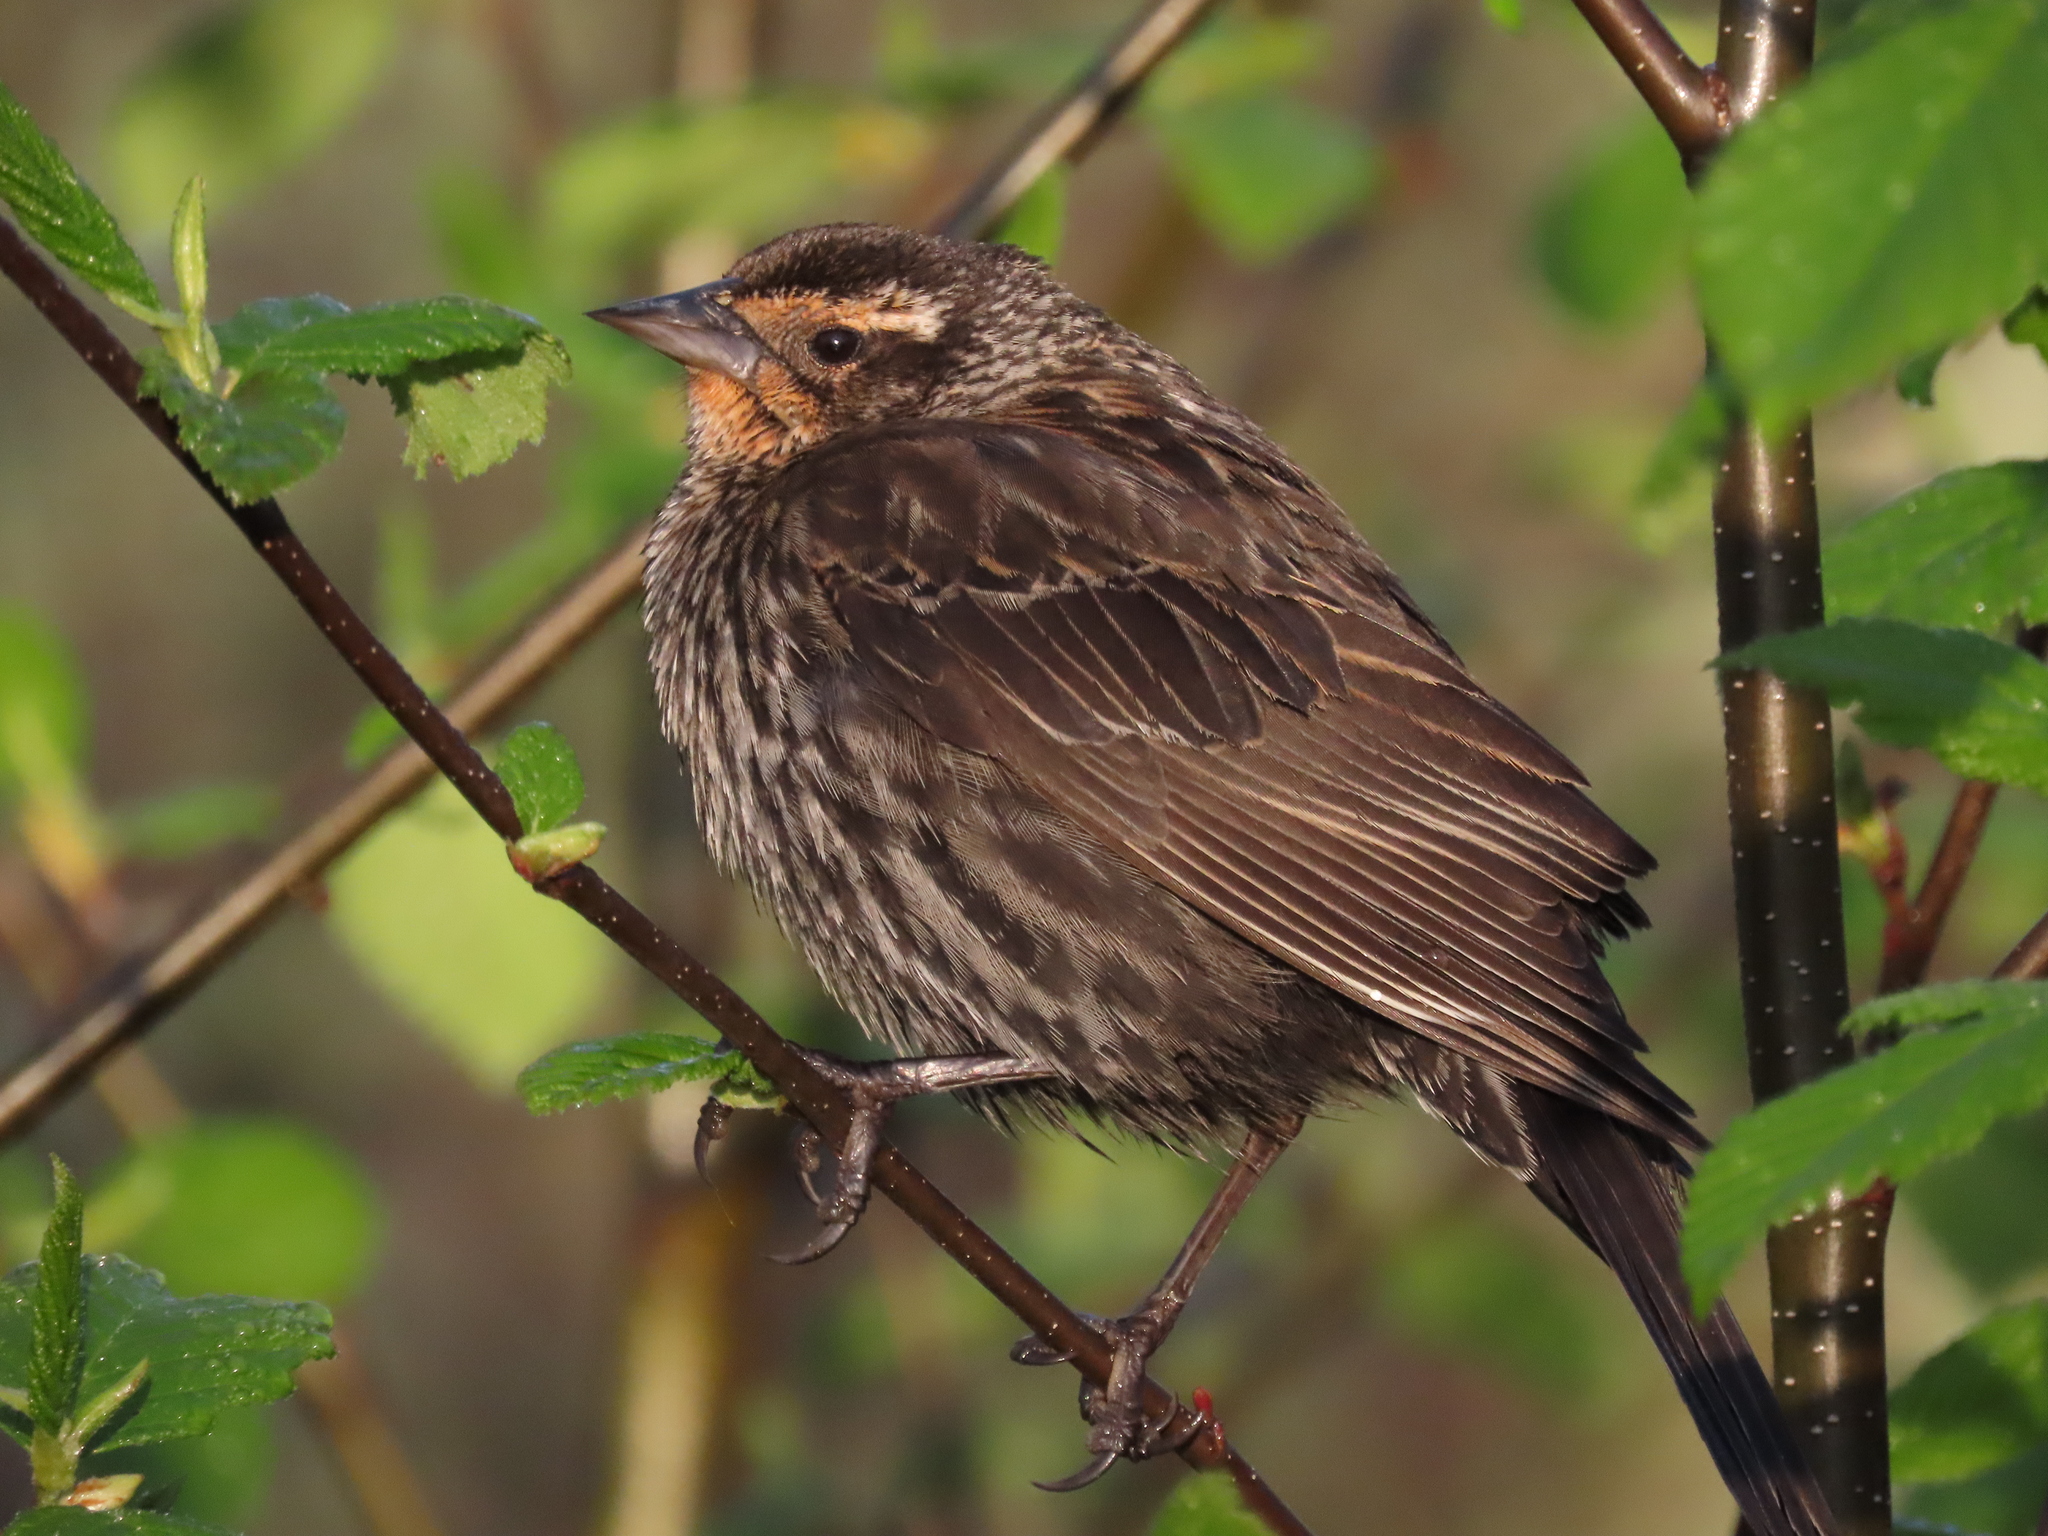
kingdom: Animalia
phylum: Chordata
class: Aves
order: Passeriformes
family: Icteridae
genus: Agelaius
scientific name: Agelaius phoeniceus
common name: Red-winged blackbird
